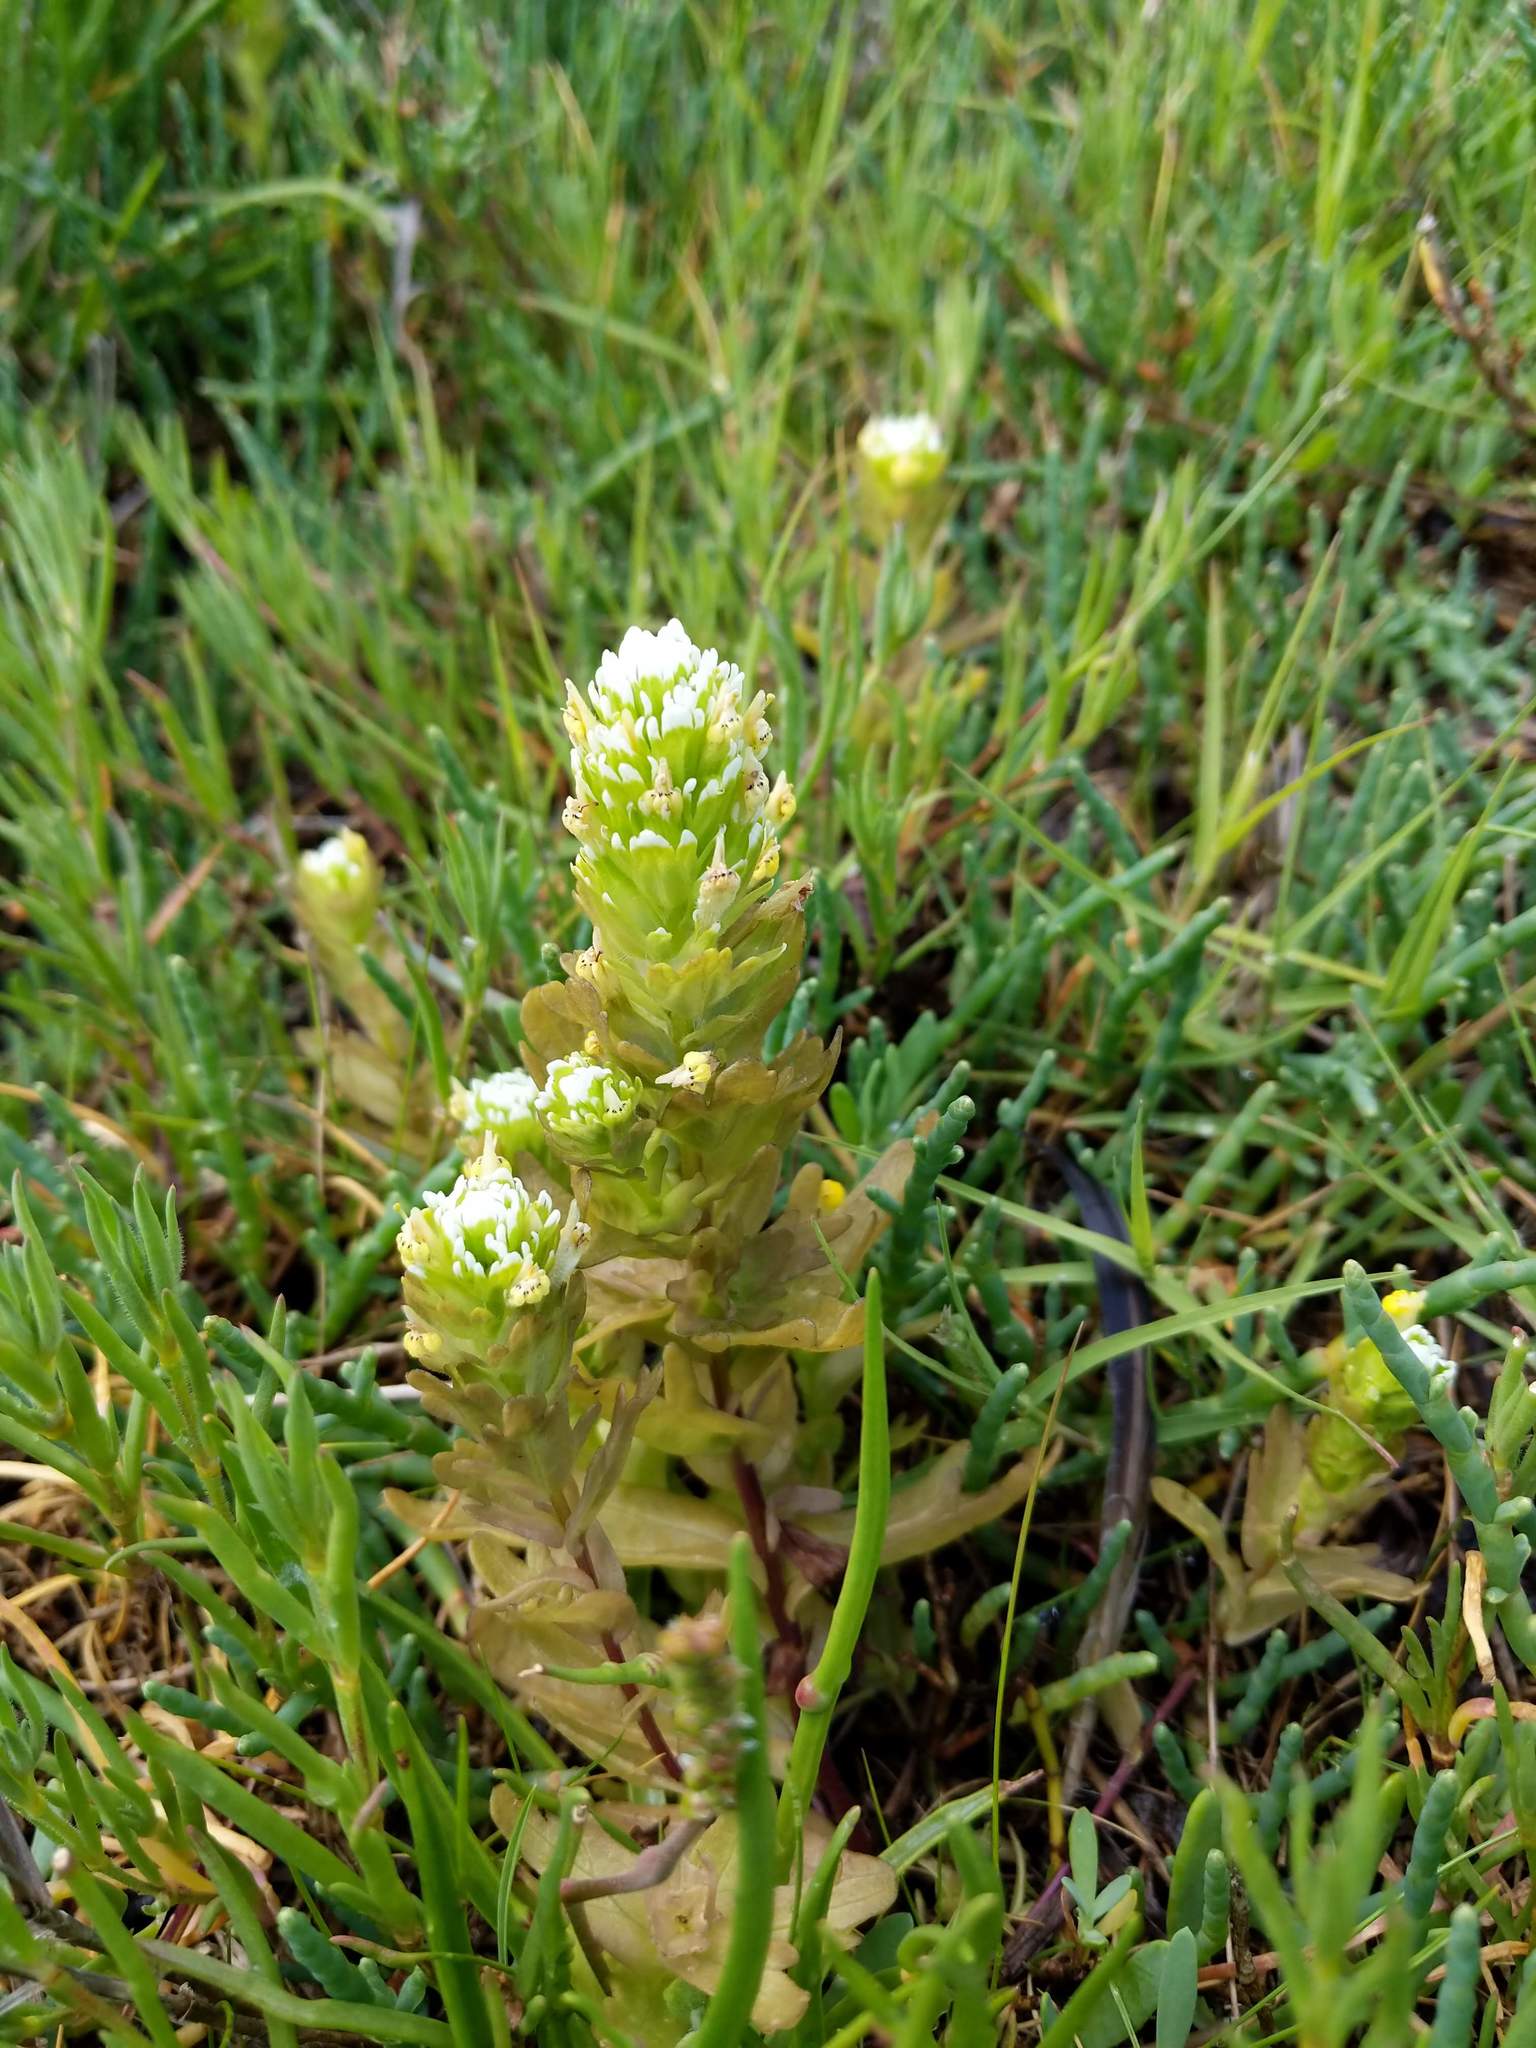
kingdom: Plantae
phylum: Tracheophyta
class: Magnoliopsida
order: Lamiales
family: Orobanchaceae
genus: Castilleja
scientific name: Castilleja ambigua
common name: Johnny-nip
